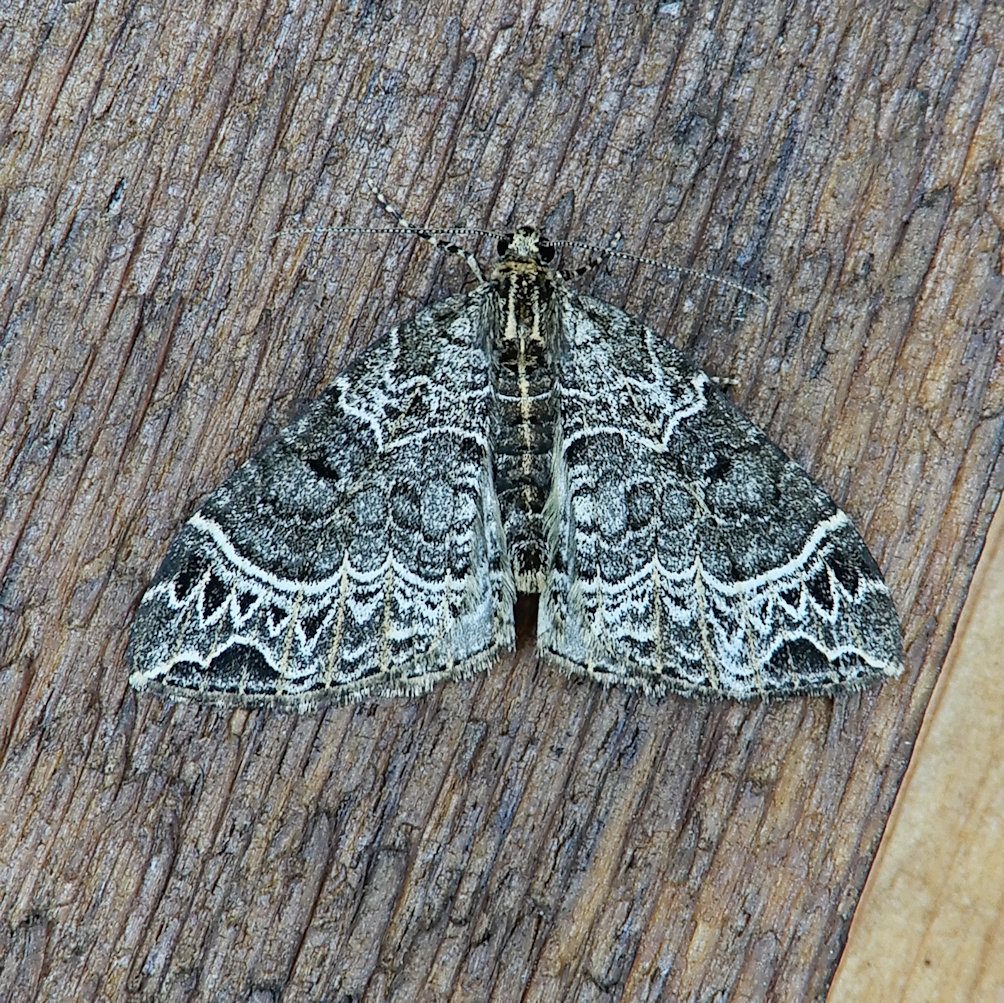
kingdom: Animalia
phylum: Arthropoda
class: Insecta
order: Lepidoptera
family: Geometridae
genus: Ecliptopera
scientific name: Ecliptopera silaceata
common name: Small phoenix
